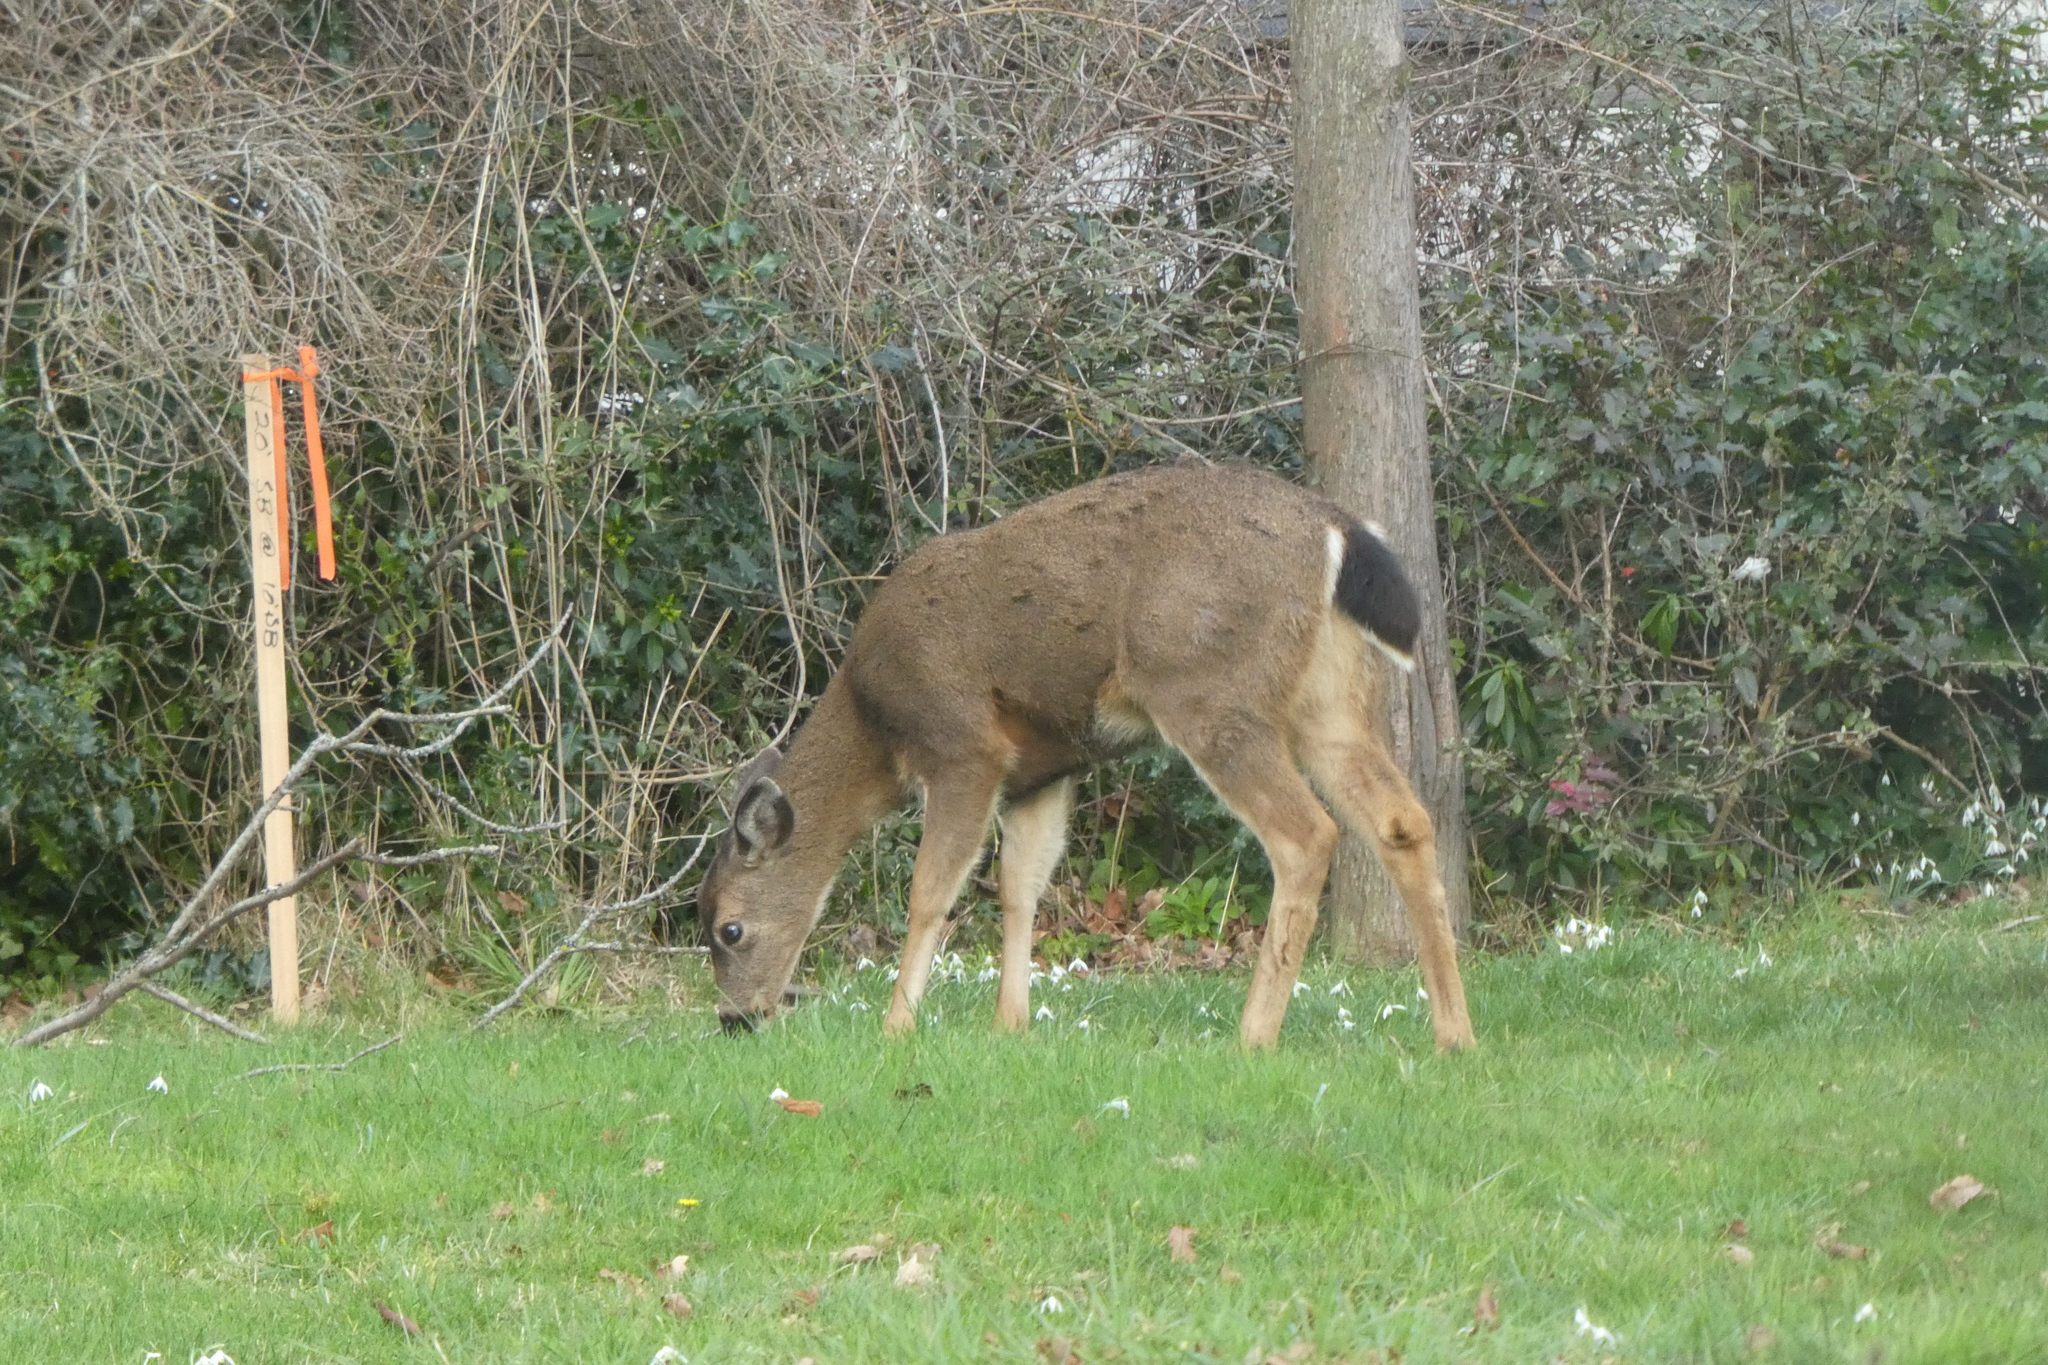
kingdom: Animalia
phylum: Chordata
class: Mammalia
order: Artiodactyla
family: Cervidae
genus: Odocoileus
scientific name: Odocoileus hemionus
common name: Mule deer
